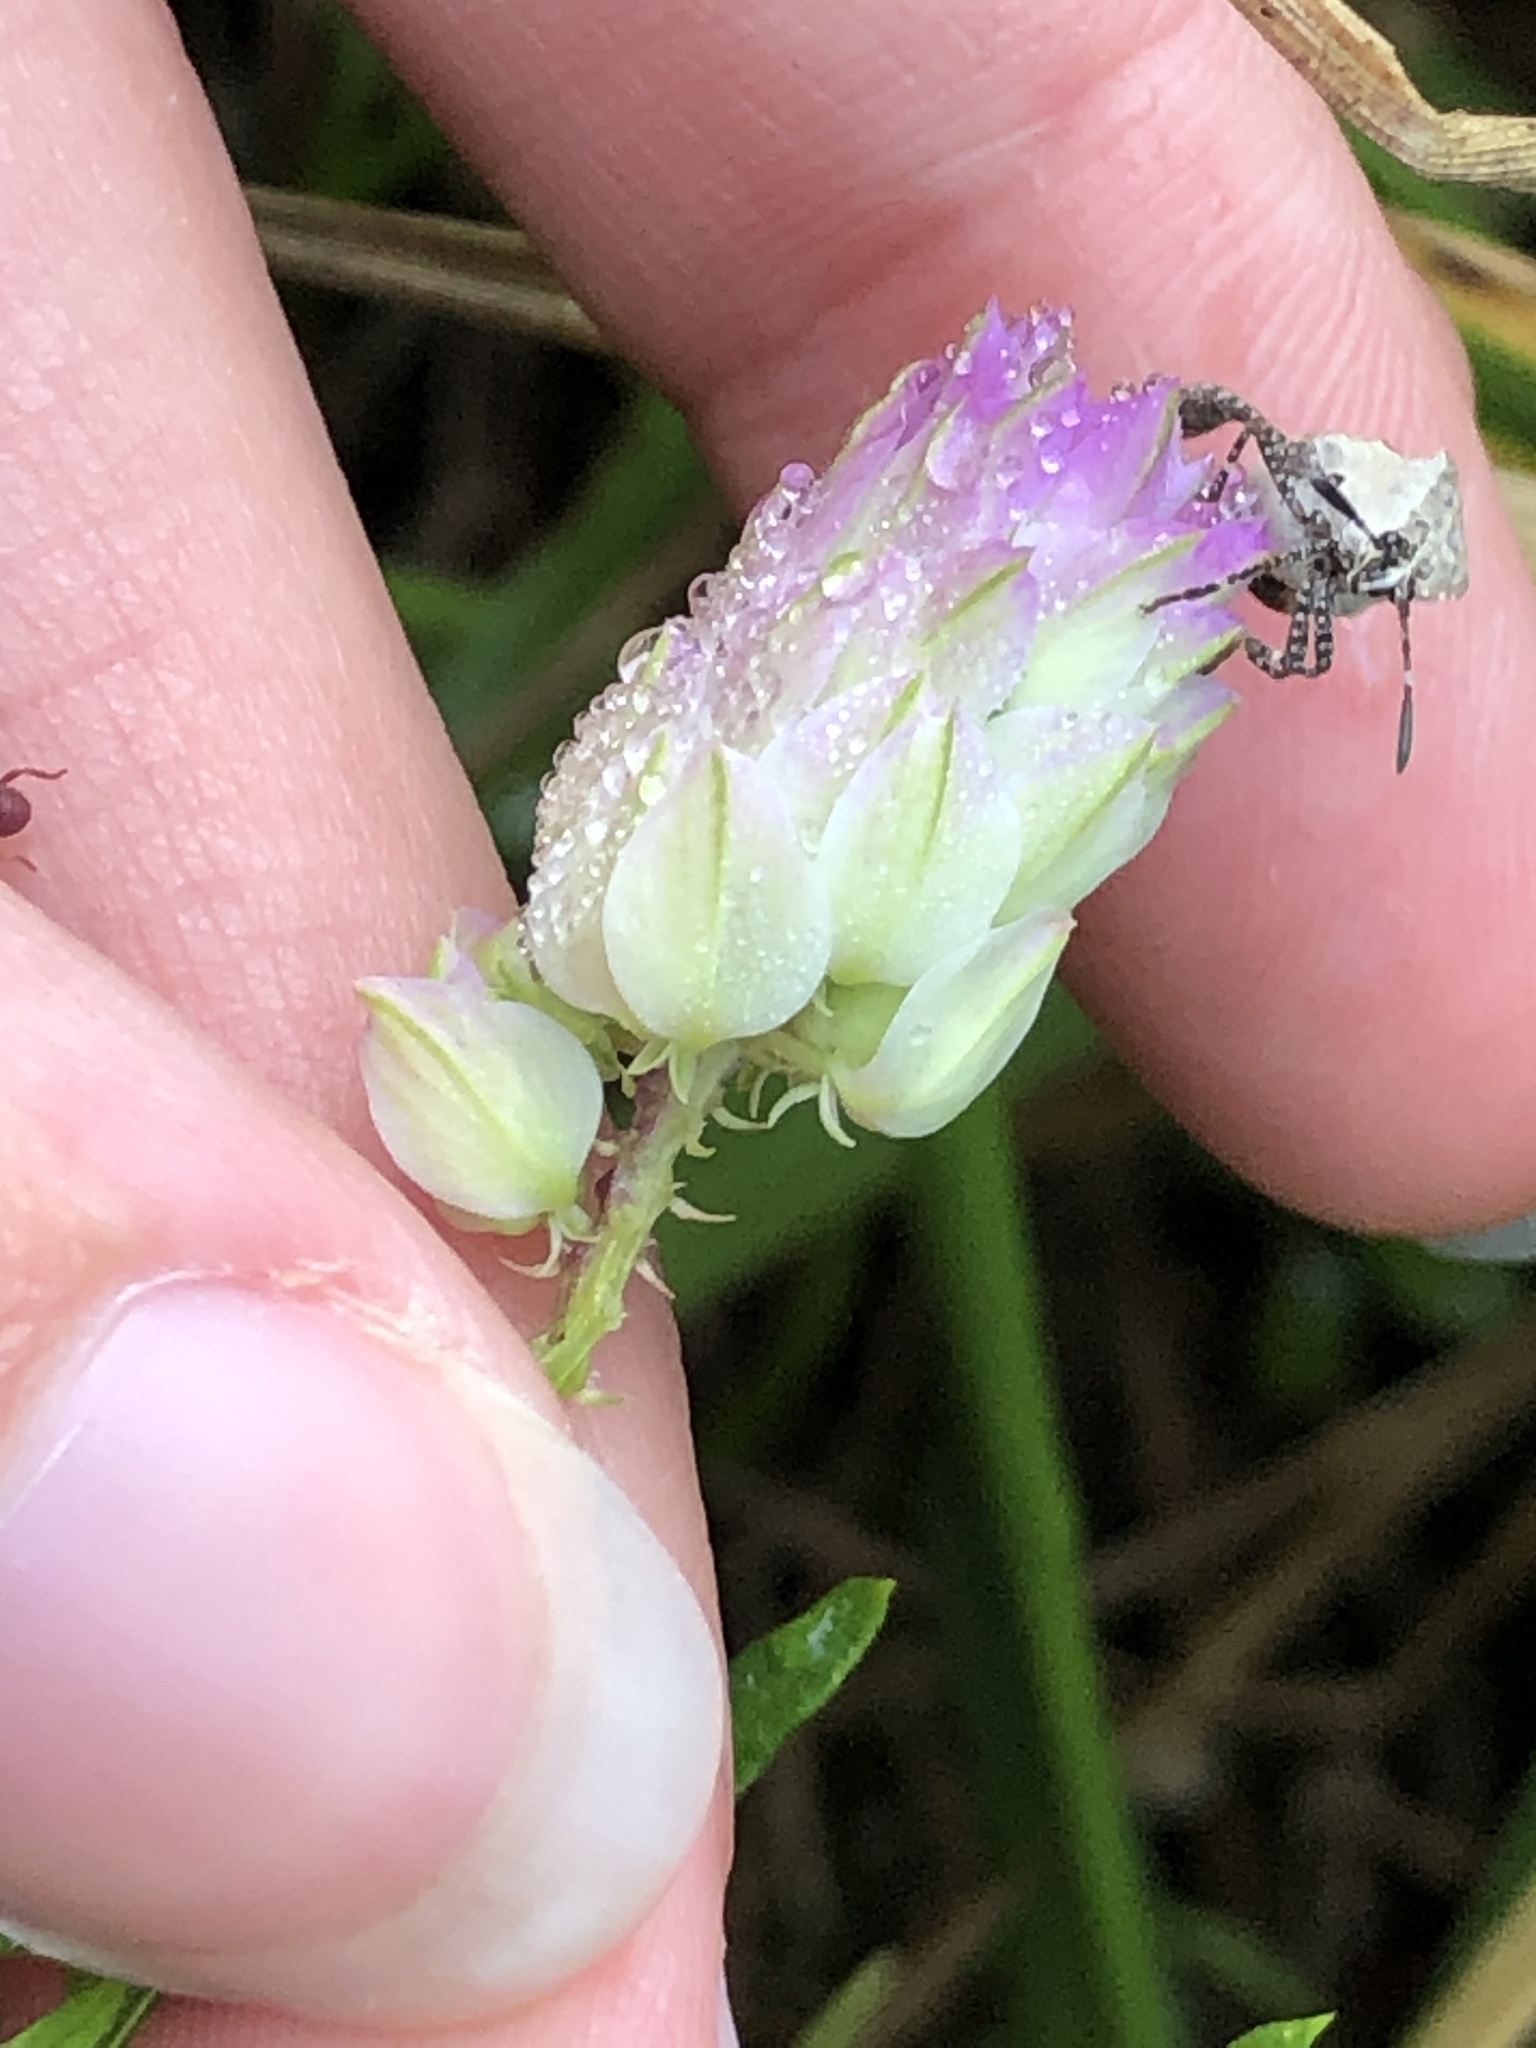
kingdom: Plantae
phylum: Tracheophyta
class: Magnoliopsida
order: Fabales
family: Polygalaceae
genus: Polygala
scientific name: Polygala sanguinea
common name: Blood milkwort
